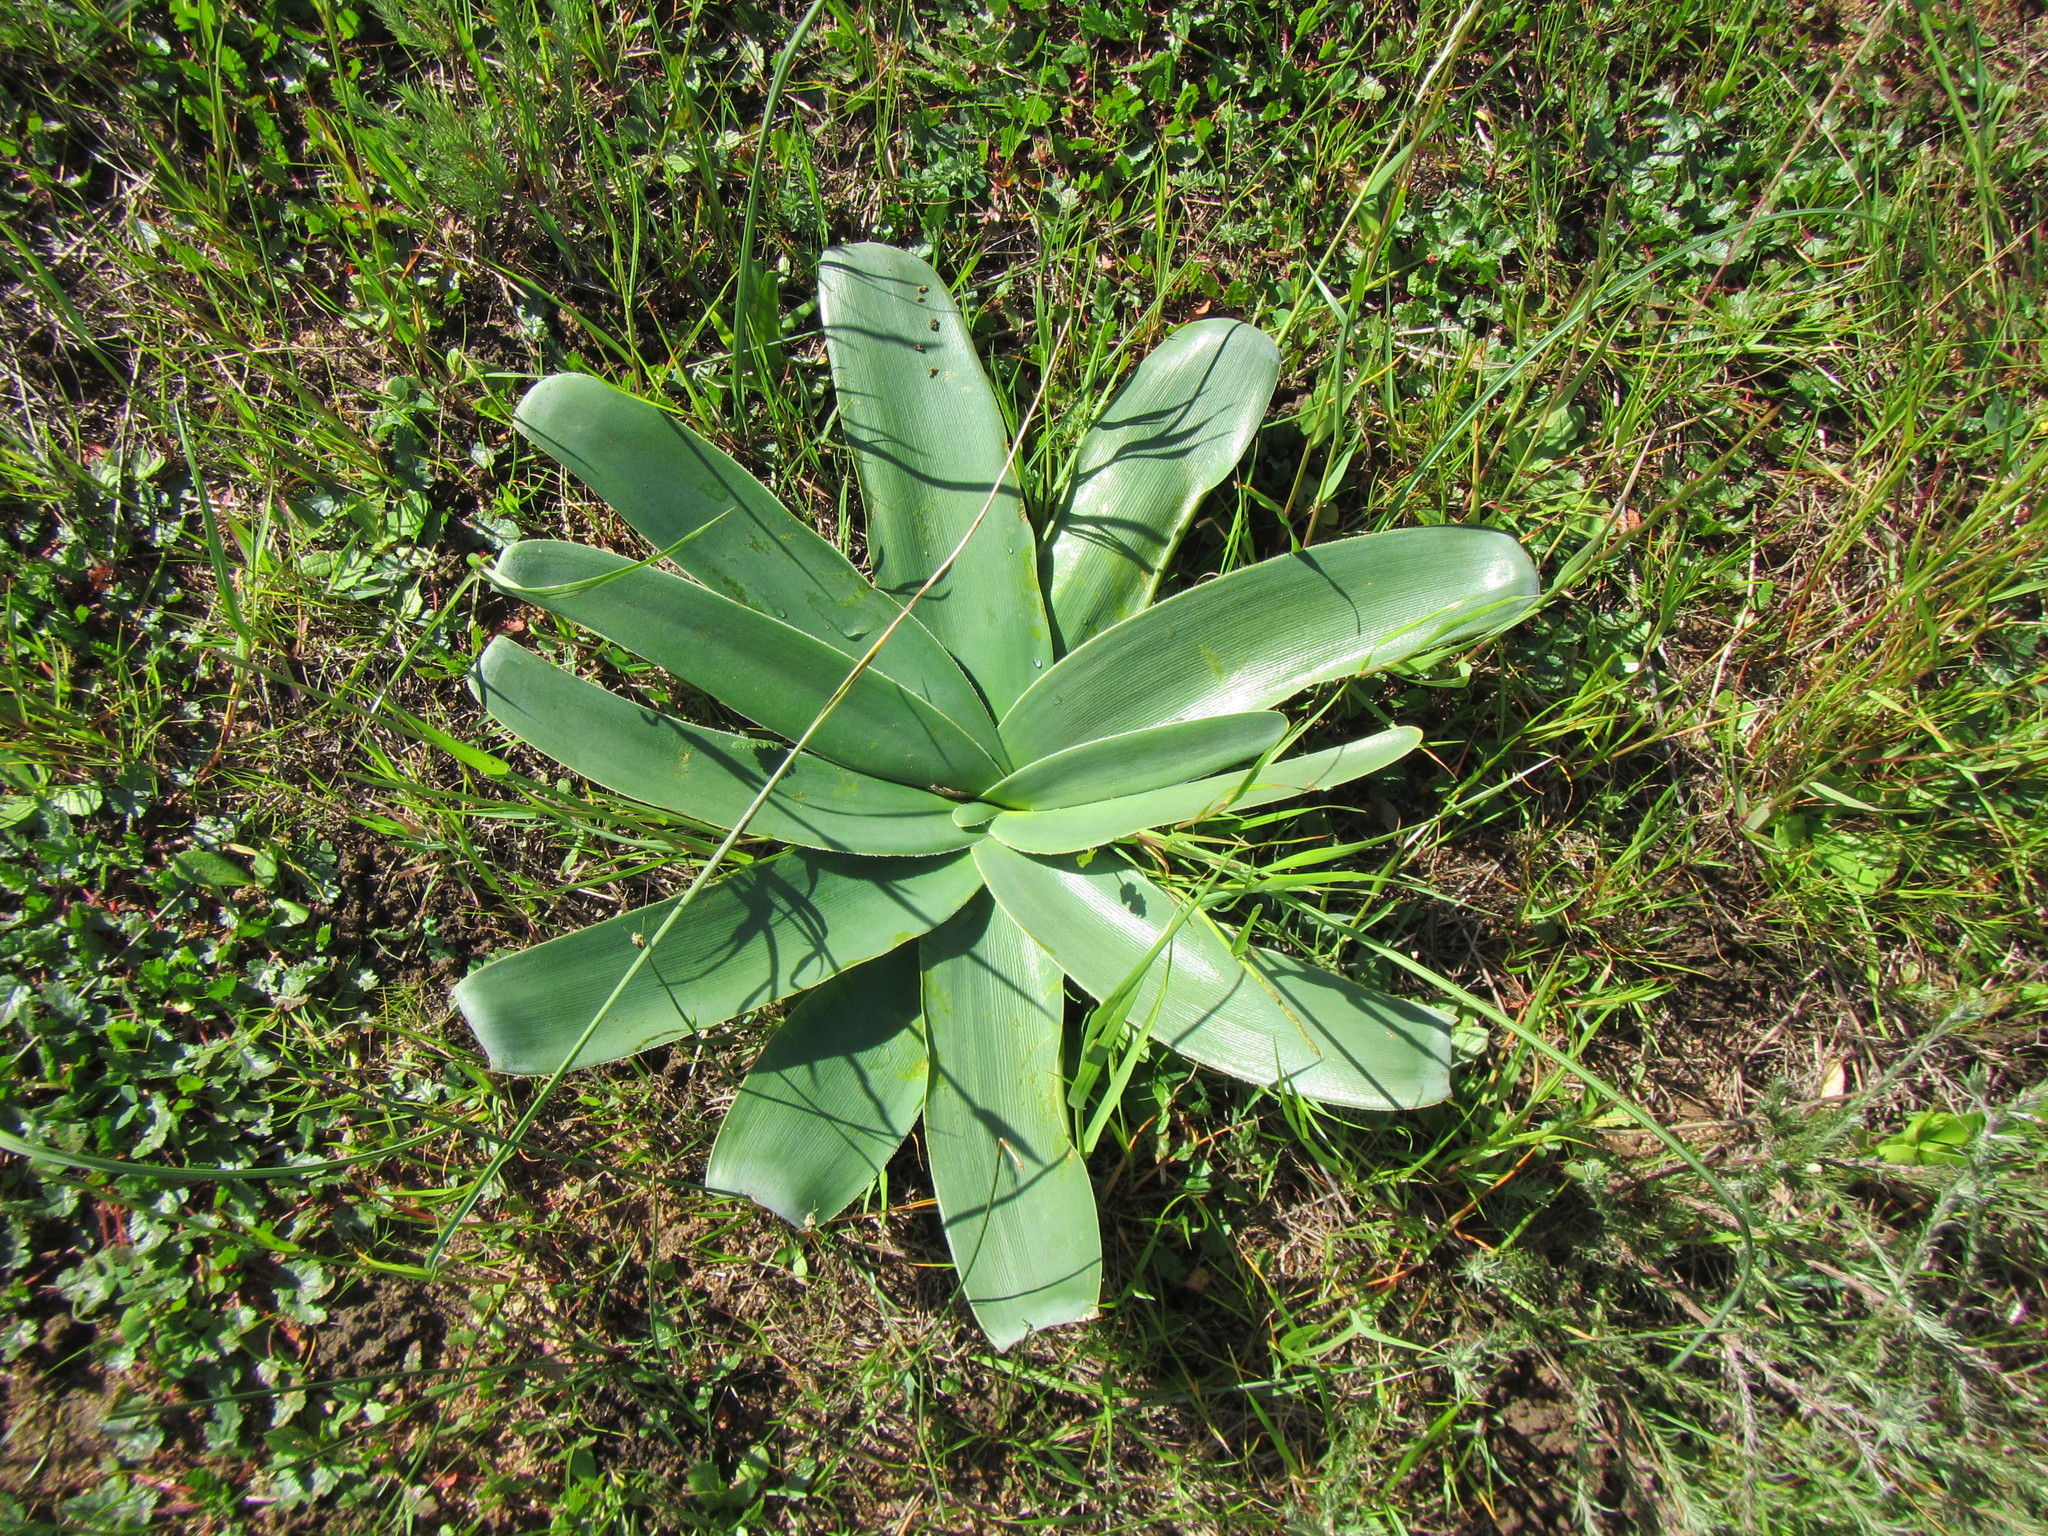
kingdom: Plantae
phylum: Tracheophyta
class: Liliopsida
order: Asparagales
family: Amaryllidaceae
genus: Ammocharis
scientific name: Ammocharis longifolia
